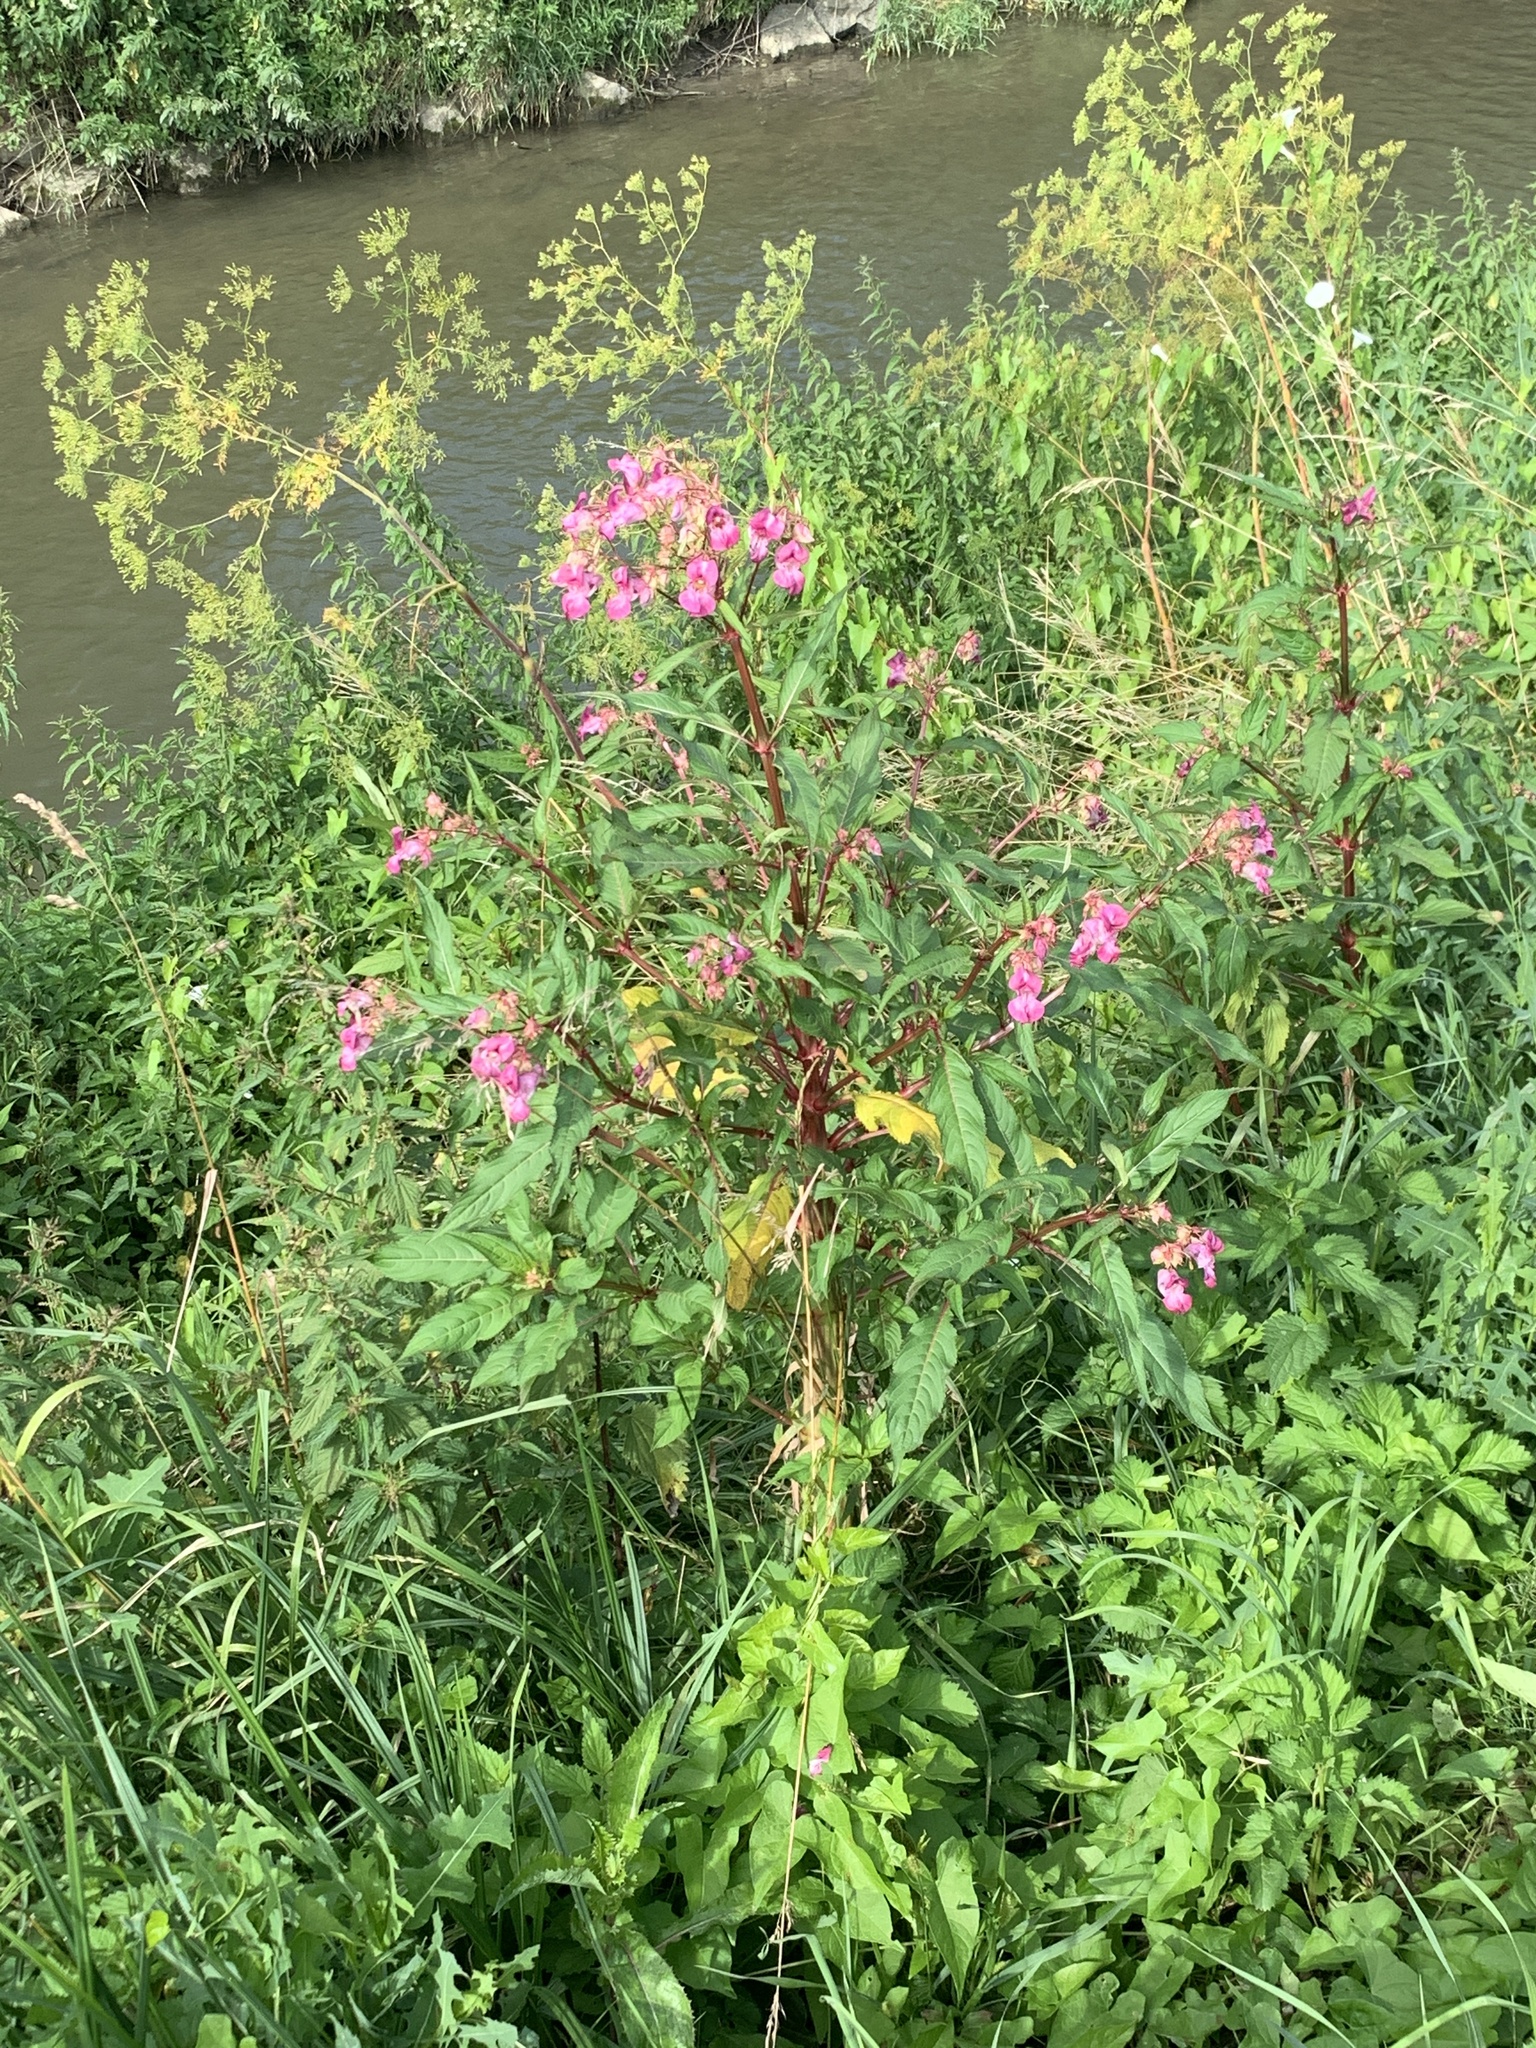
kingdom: Plantae
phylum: Tracheophyta
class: Magnoliopsida
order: Ericales
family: Balsaminaceae
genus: Impatiens
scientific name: Impatiens glandulifera
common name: Himalayan balsam
